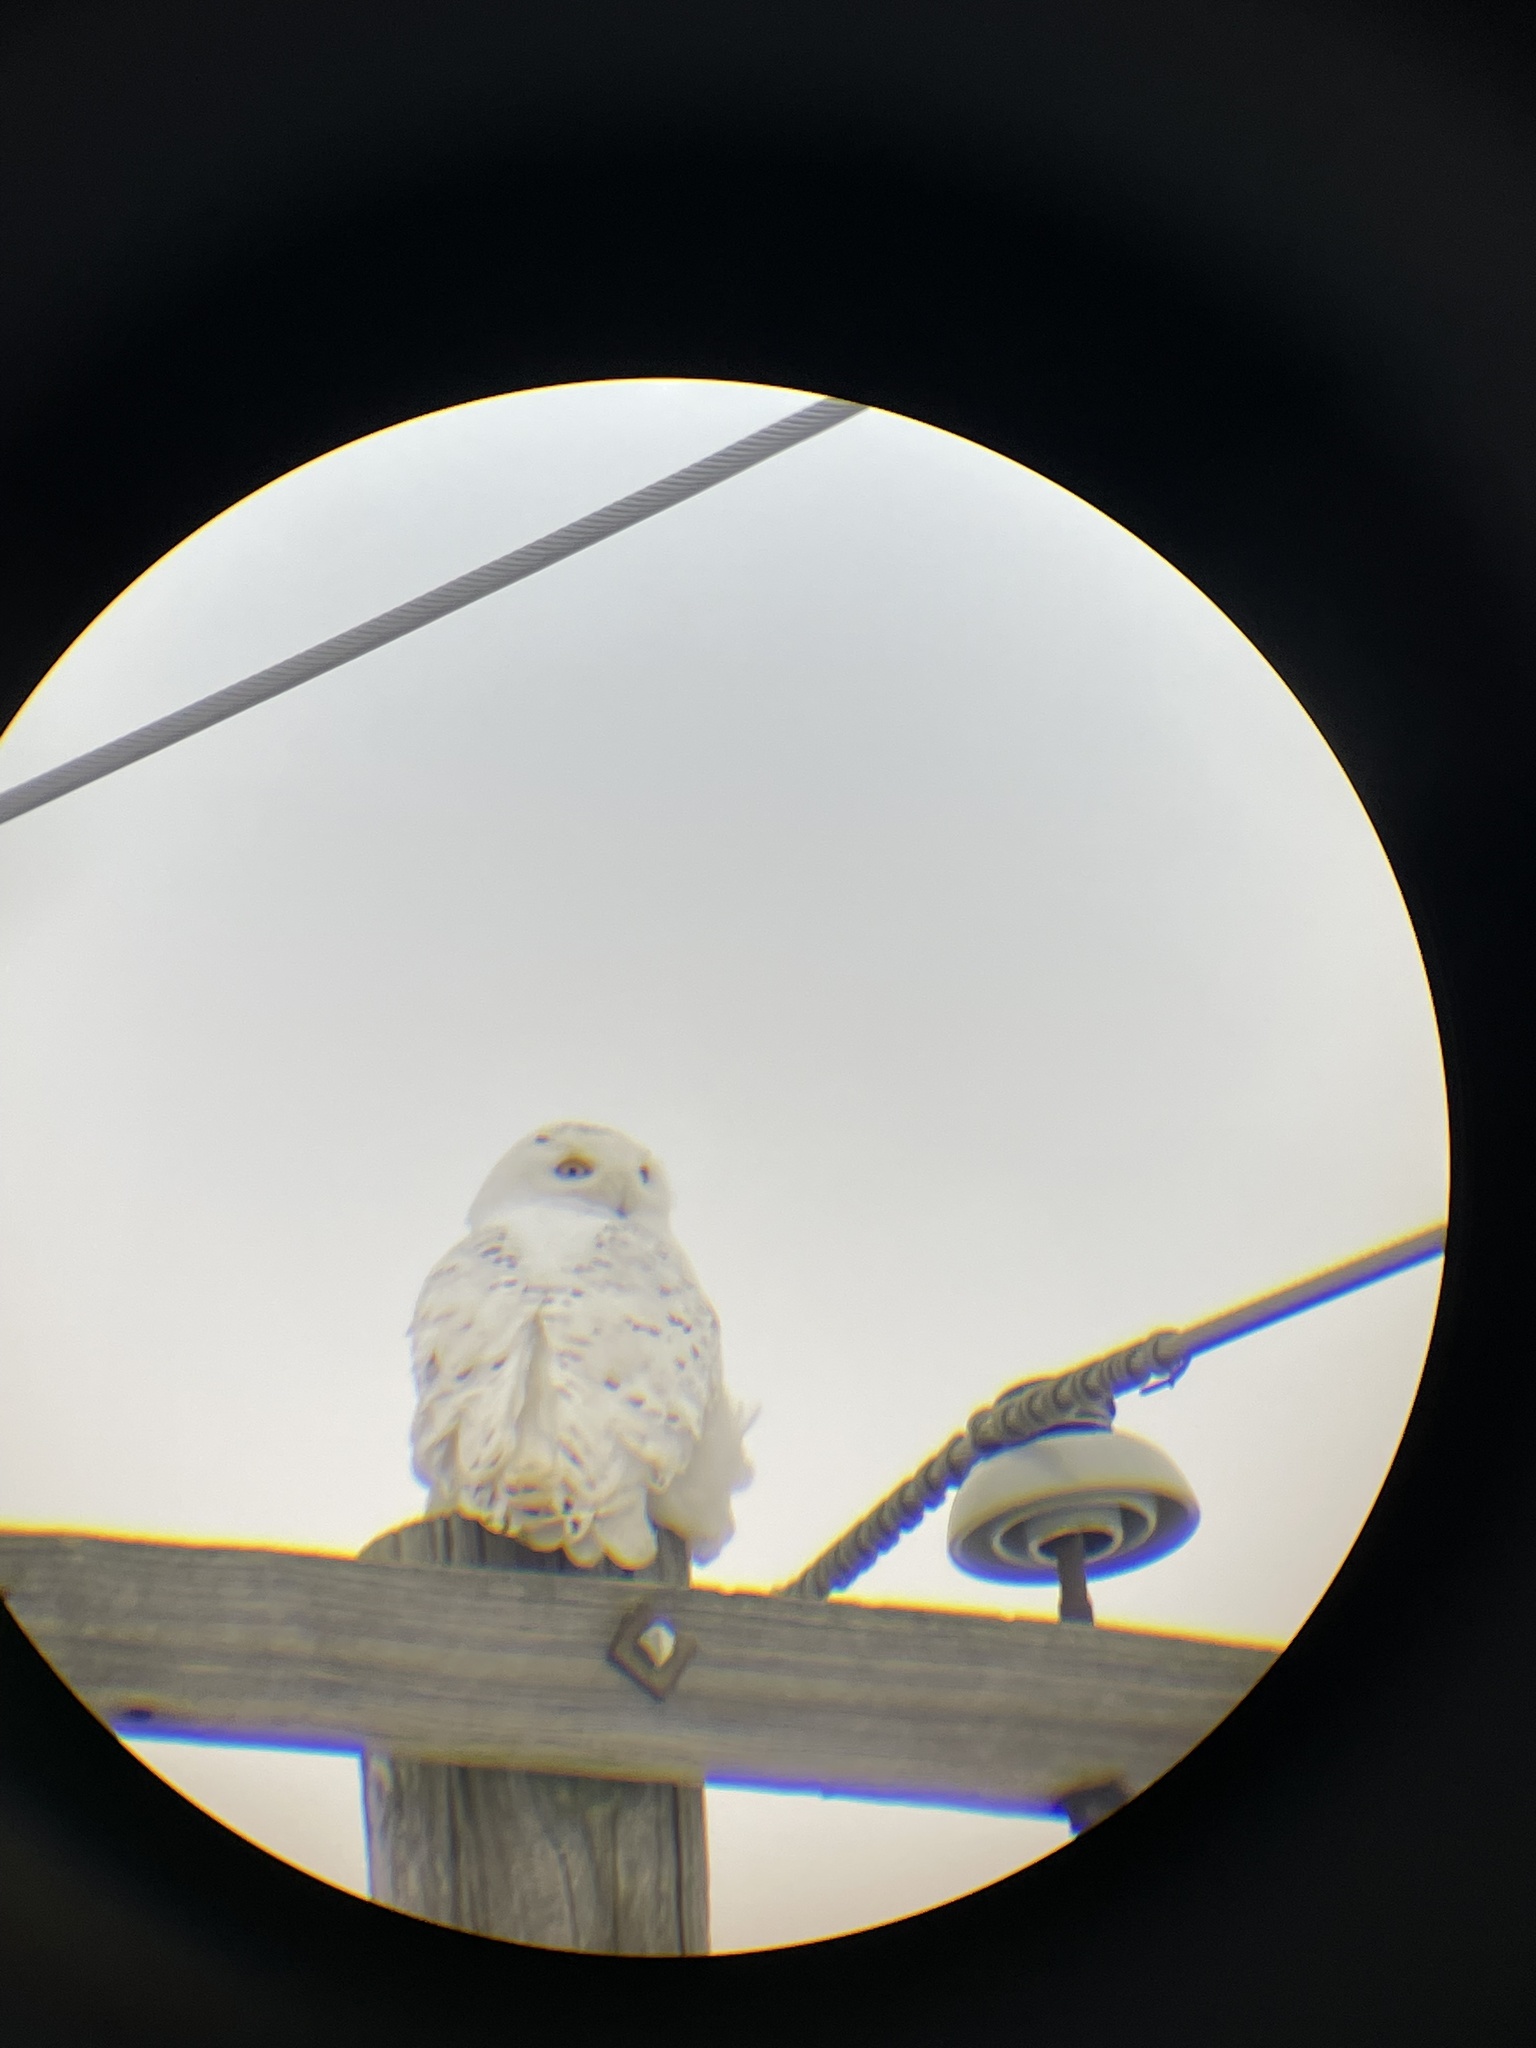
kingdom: Animalia
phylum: Chordata
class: Aves
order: Strigiformes
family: Strigidae
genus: Bubo
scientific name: Bubo scandiacus
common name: Snowy owl
